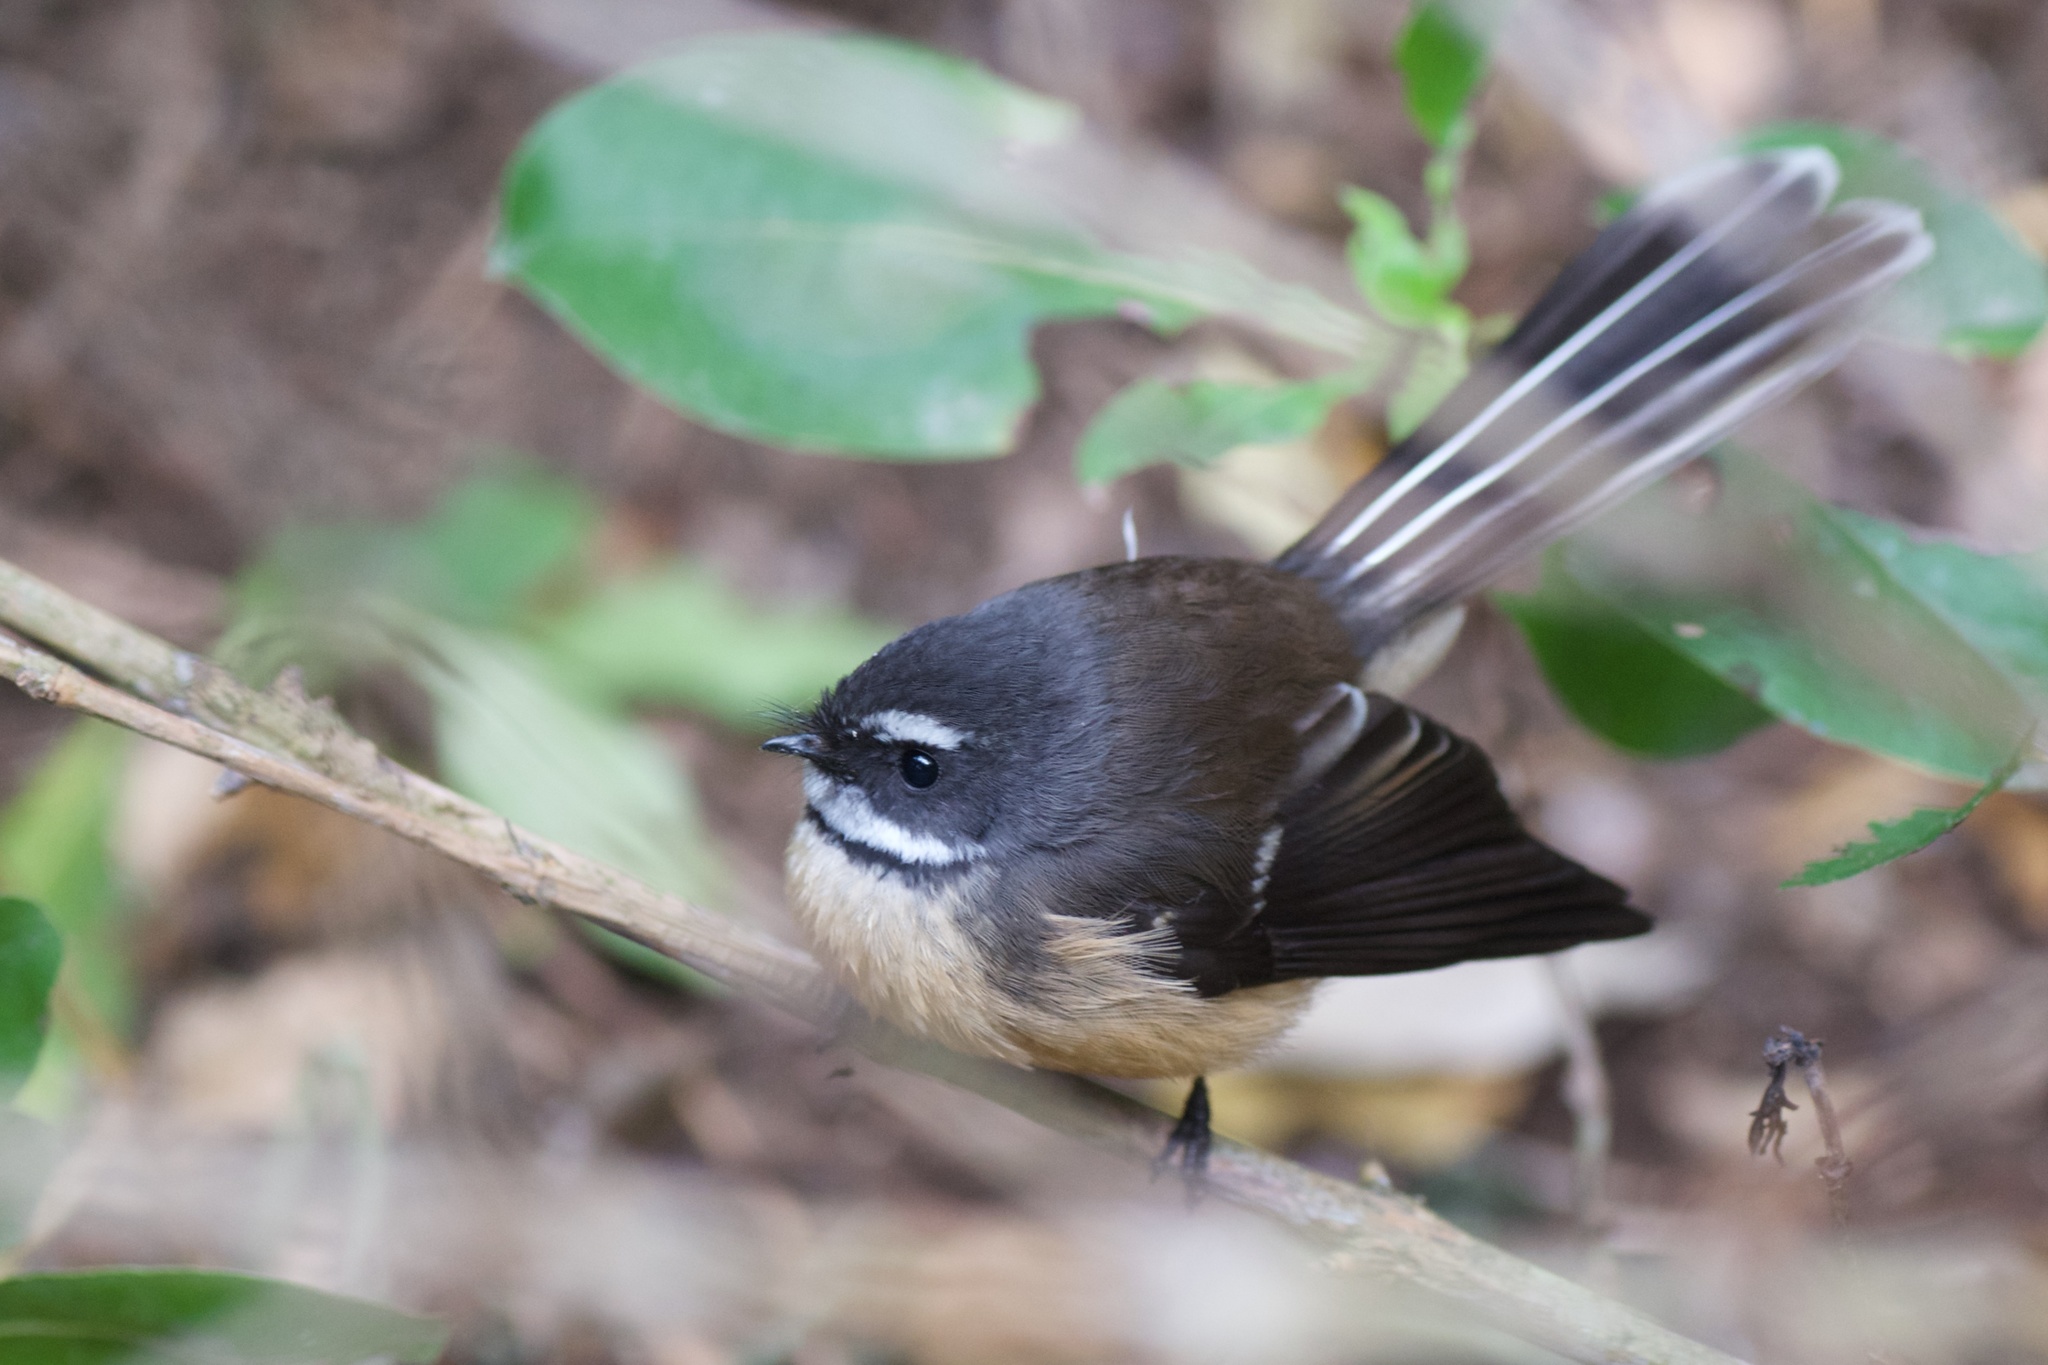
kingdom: Animalia
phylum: Chordata
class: Aves
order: Passeriformes
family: Rhipiduridae
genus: Rhipidura
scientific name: Rhipidura fuliginosa
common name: New zealand fantail
